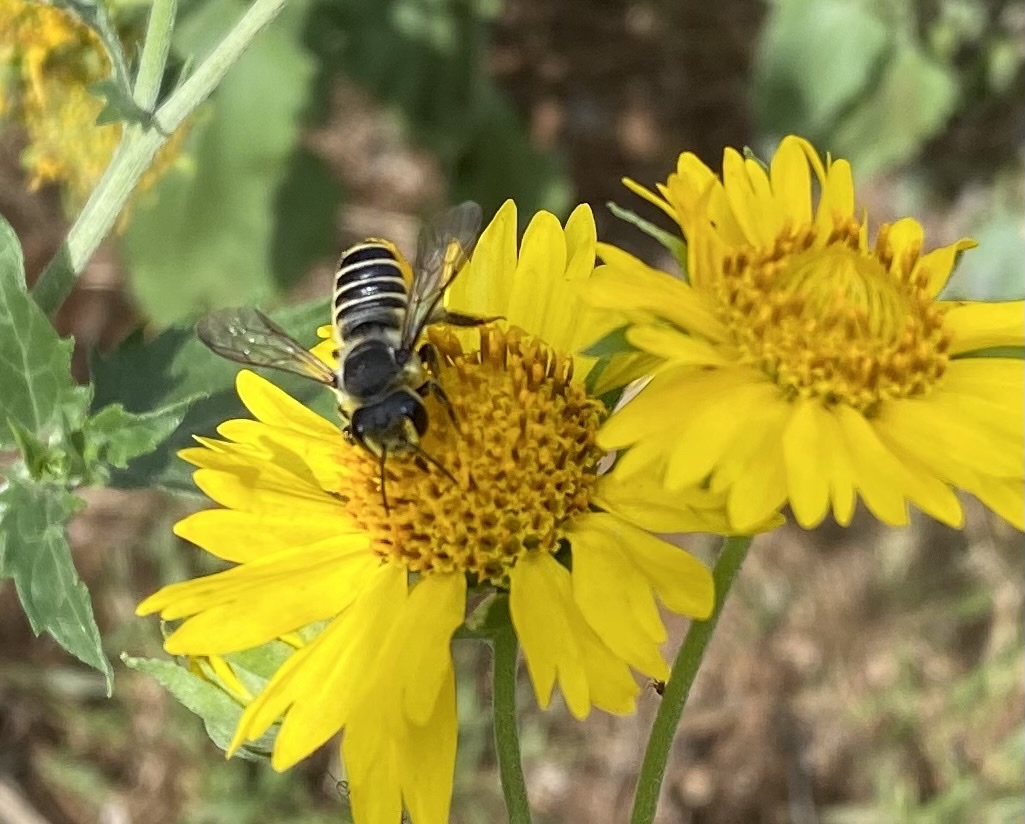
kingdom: Animalia
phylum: Arthropoda
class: Insecta
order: Hymenoptera
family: Megachilidae
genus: Megachile
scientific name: Megachile policaris
